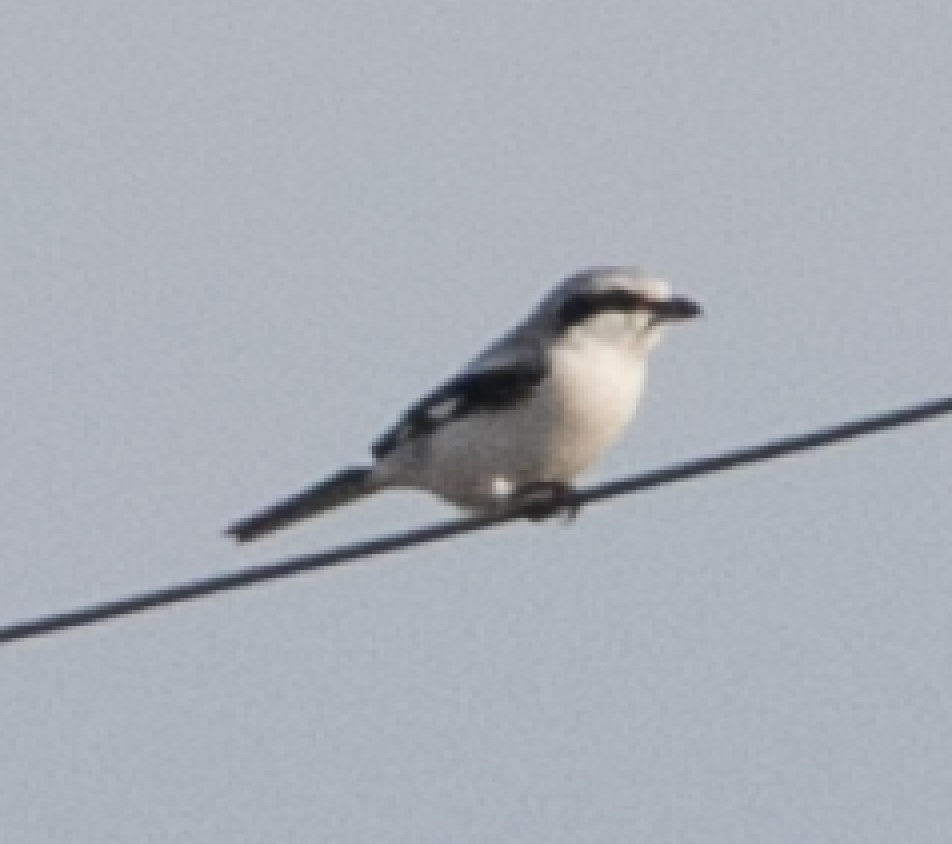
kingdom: Animalia
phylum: Chordata
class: Aves
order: Passeriformes
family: Laniidae
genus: Lanius
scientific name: Lanius excubitor
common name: Great grey shrike
